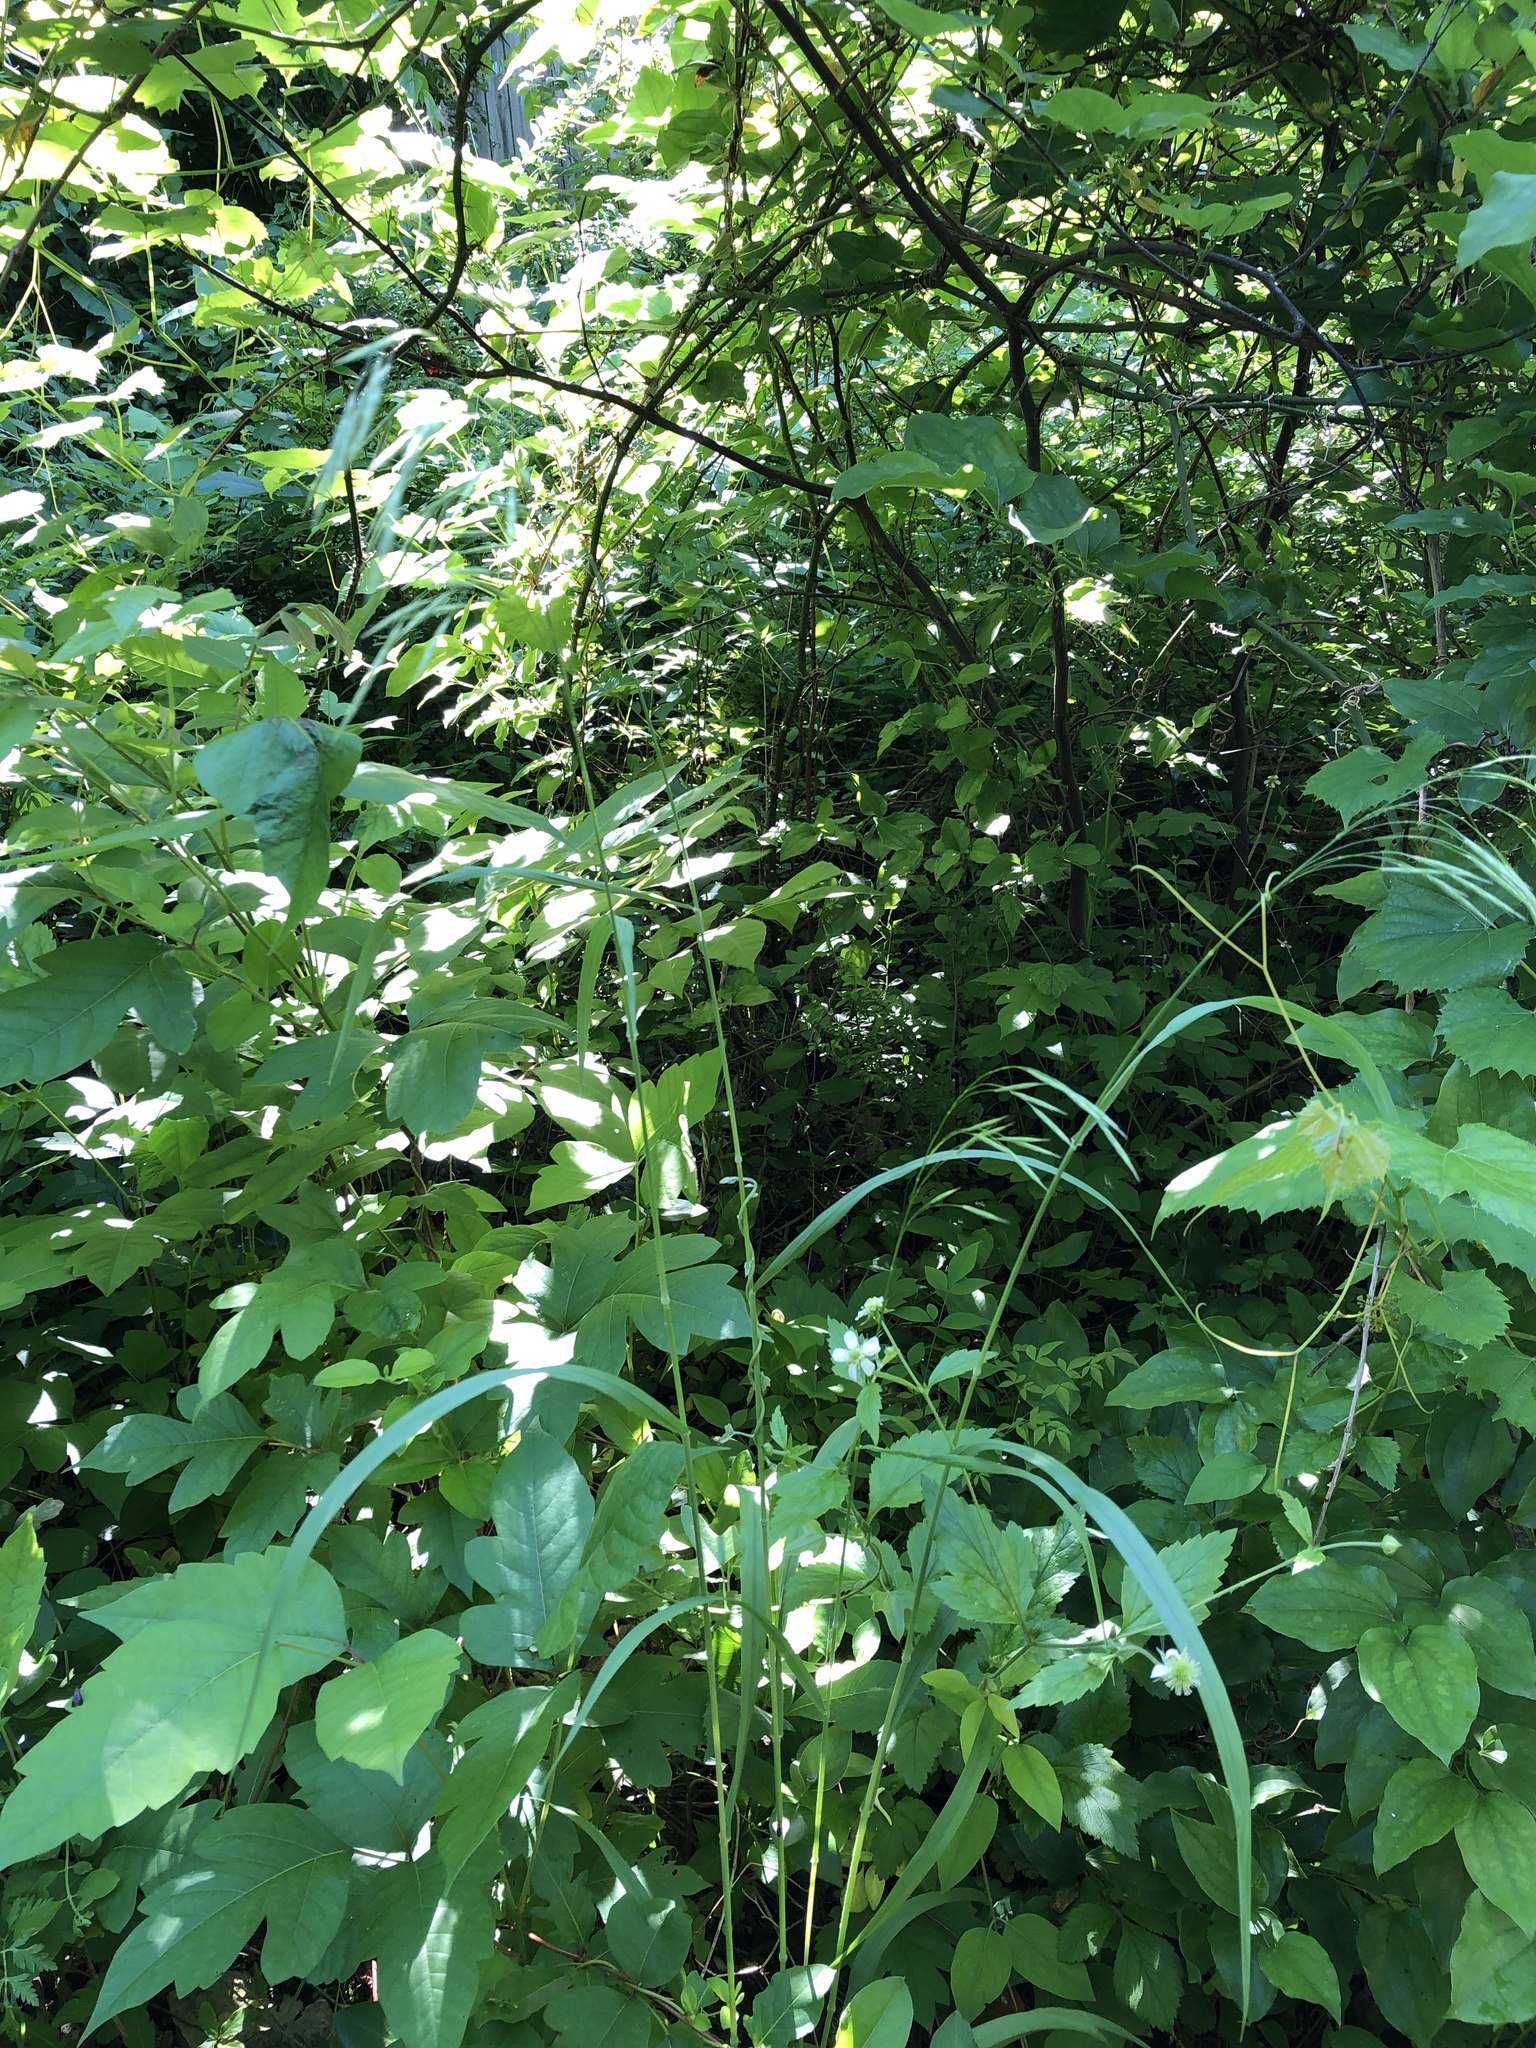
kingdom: Plantae
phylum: Tracheophyta
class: Liliopsida
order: Poales
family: Poaceae
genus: Bromus
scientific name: Bromus pubescens
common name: Hairy wood brome grass
